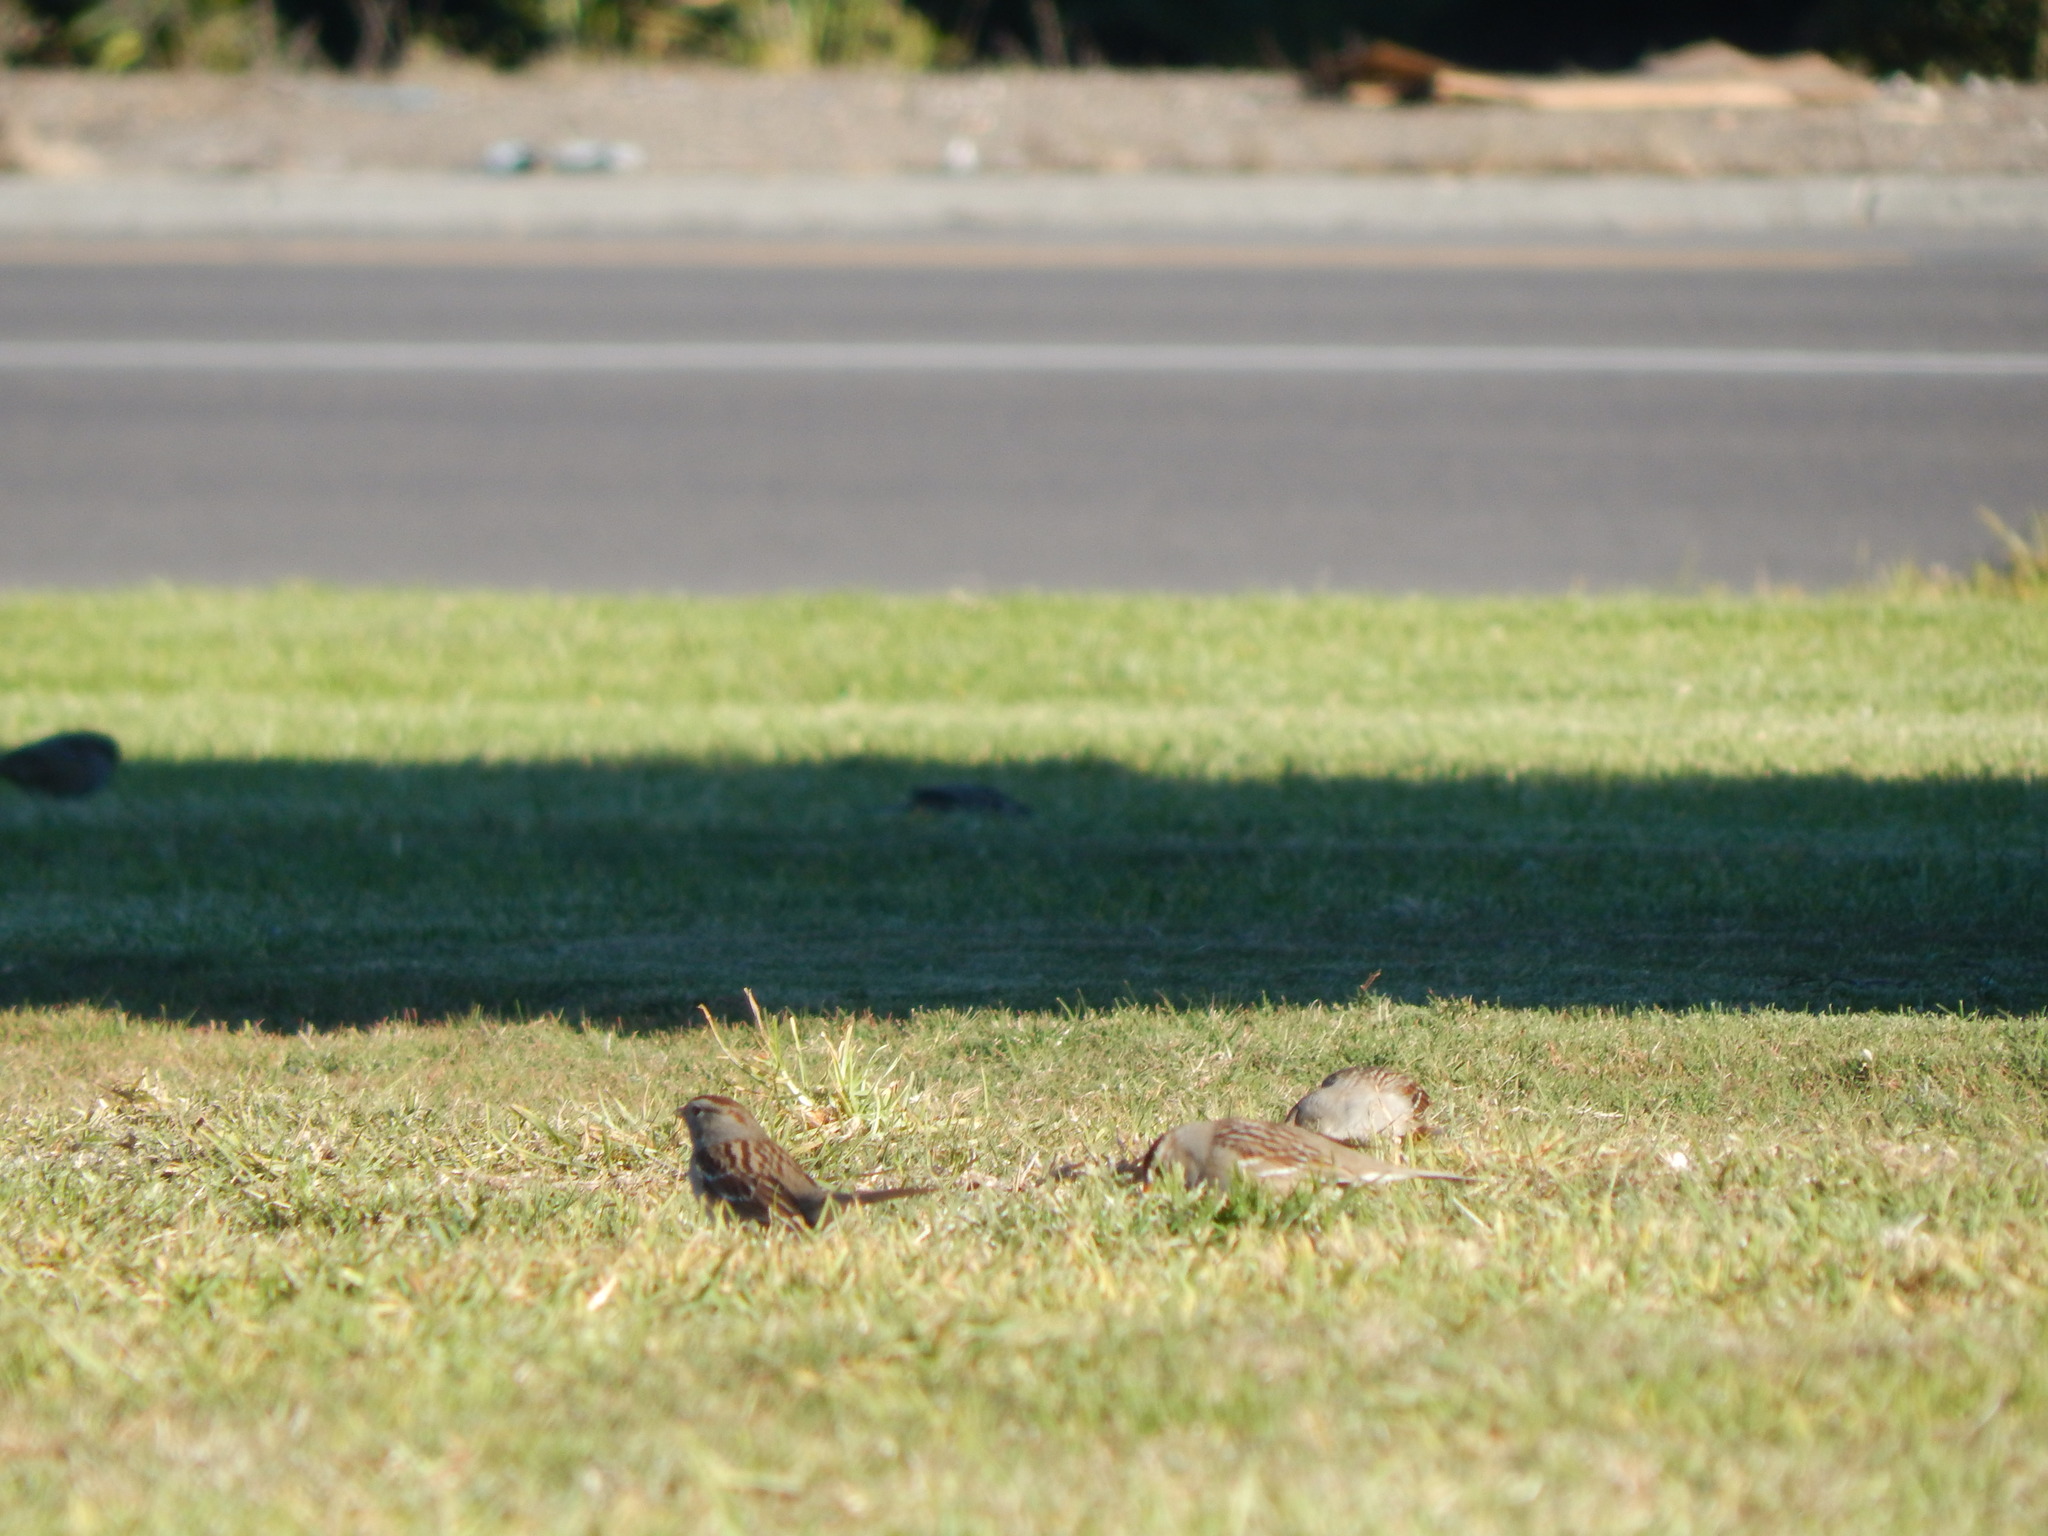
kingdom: Animalia
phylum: Chordata
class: Aves
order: Passeriformes
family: Passerellidae
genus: Zonotrichia
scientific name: Zonotrichia leucophrys
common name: White-crowned sparrow
